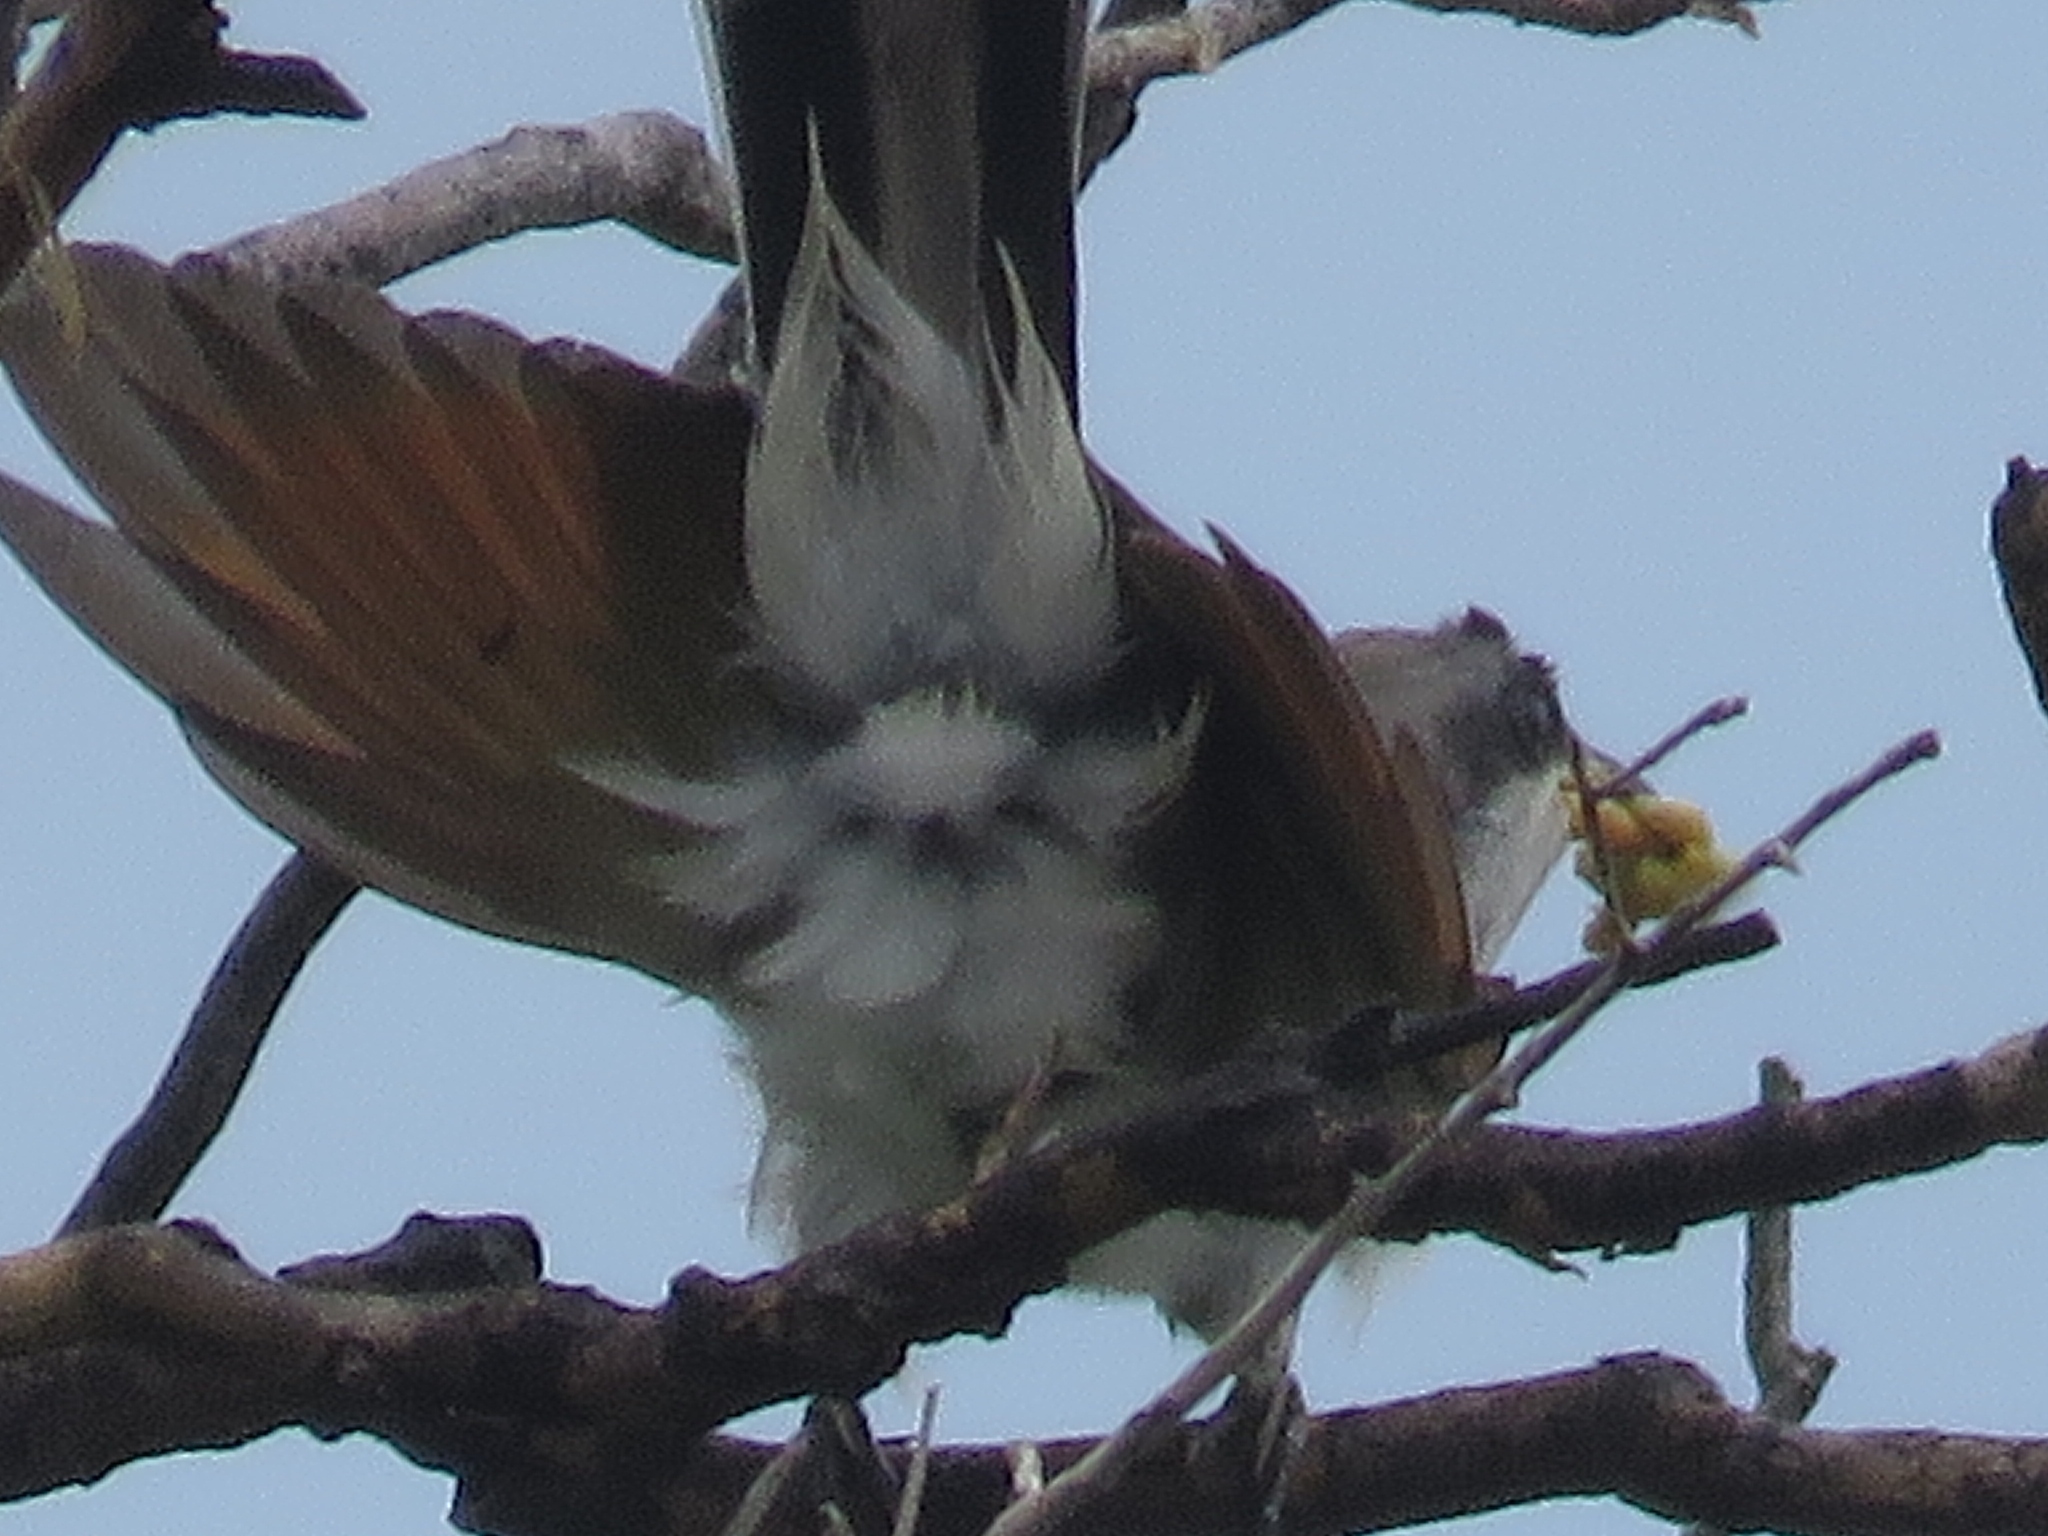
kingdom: Animalia
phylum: Chordata
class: Aves
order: Cuculiformes
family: Cuculidae
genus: Coccyzus
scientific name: Coccyzus americanus
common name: Yellow-billed cuckoo
